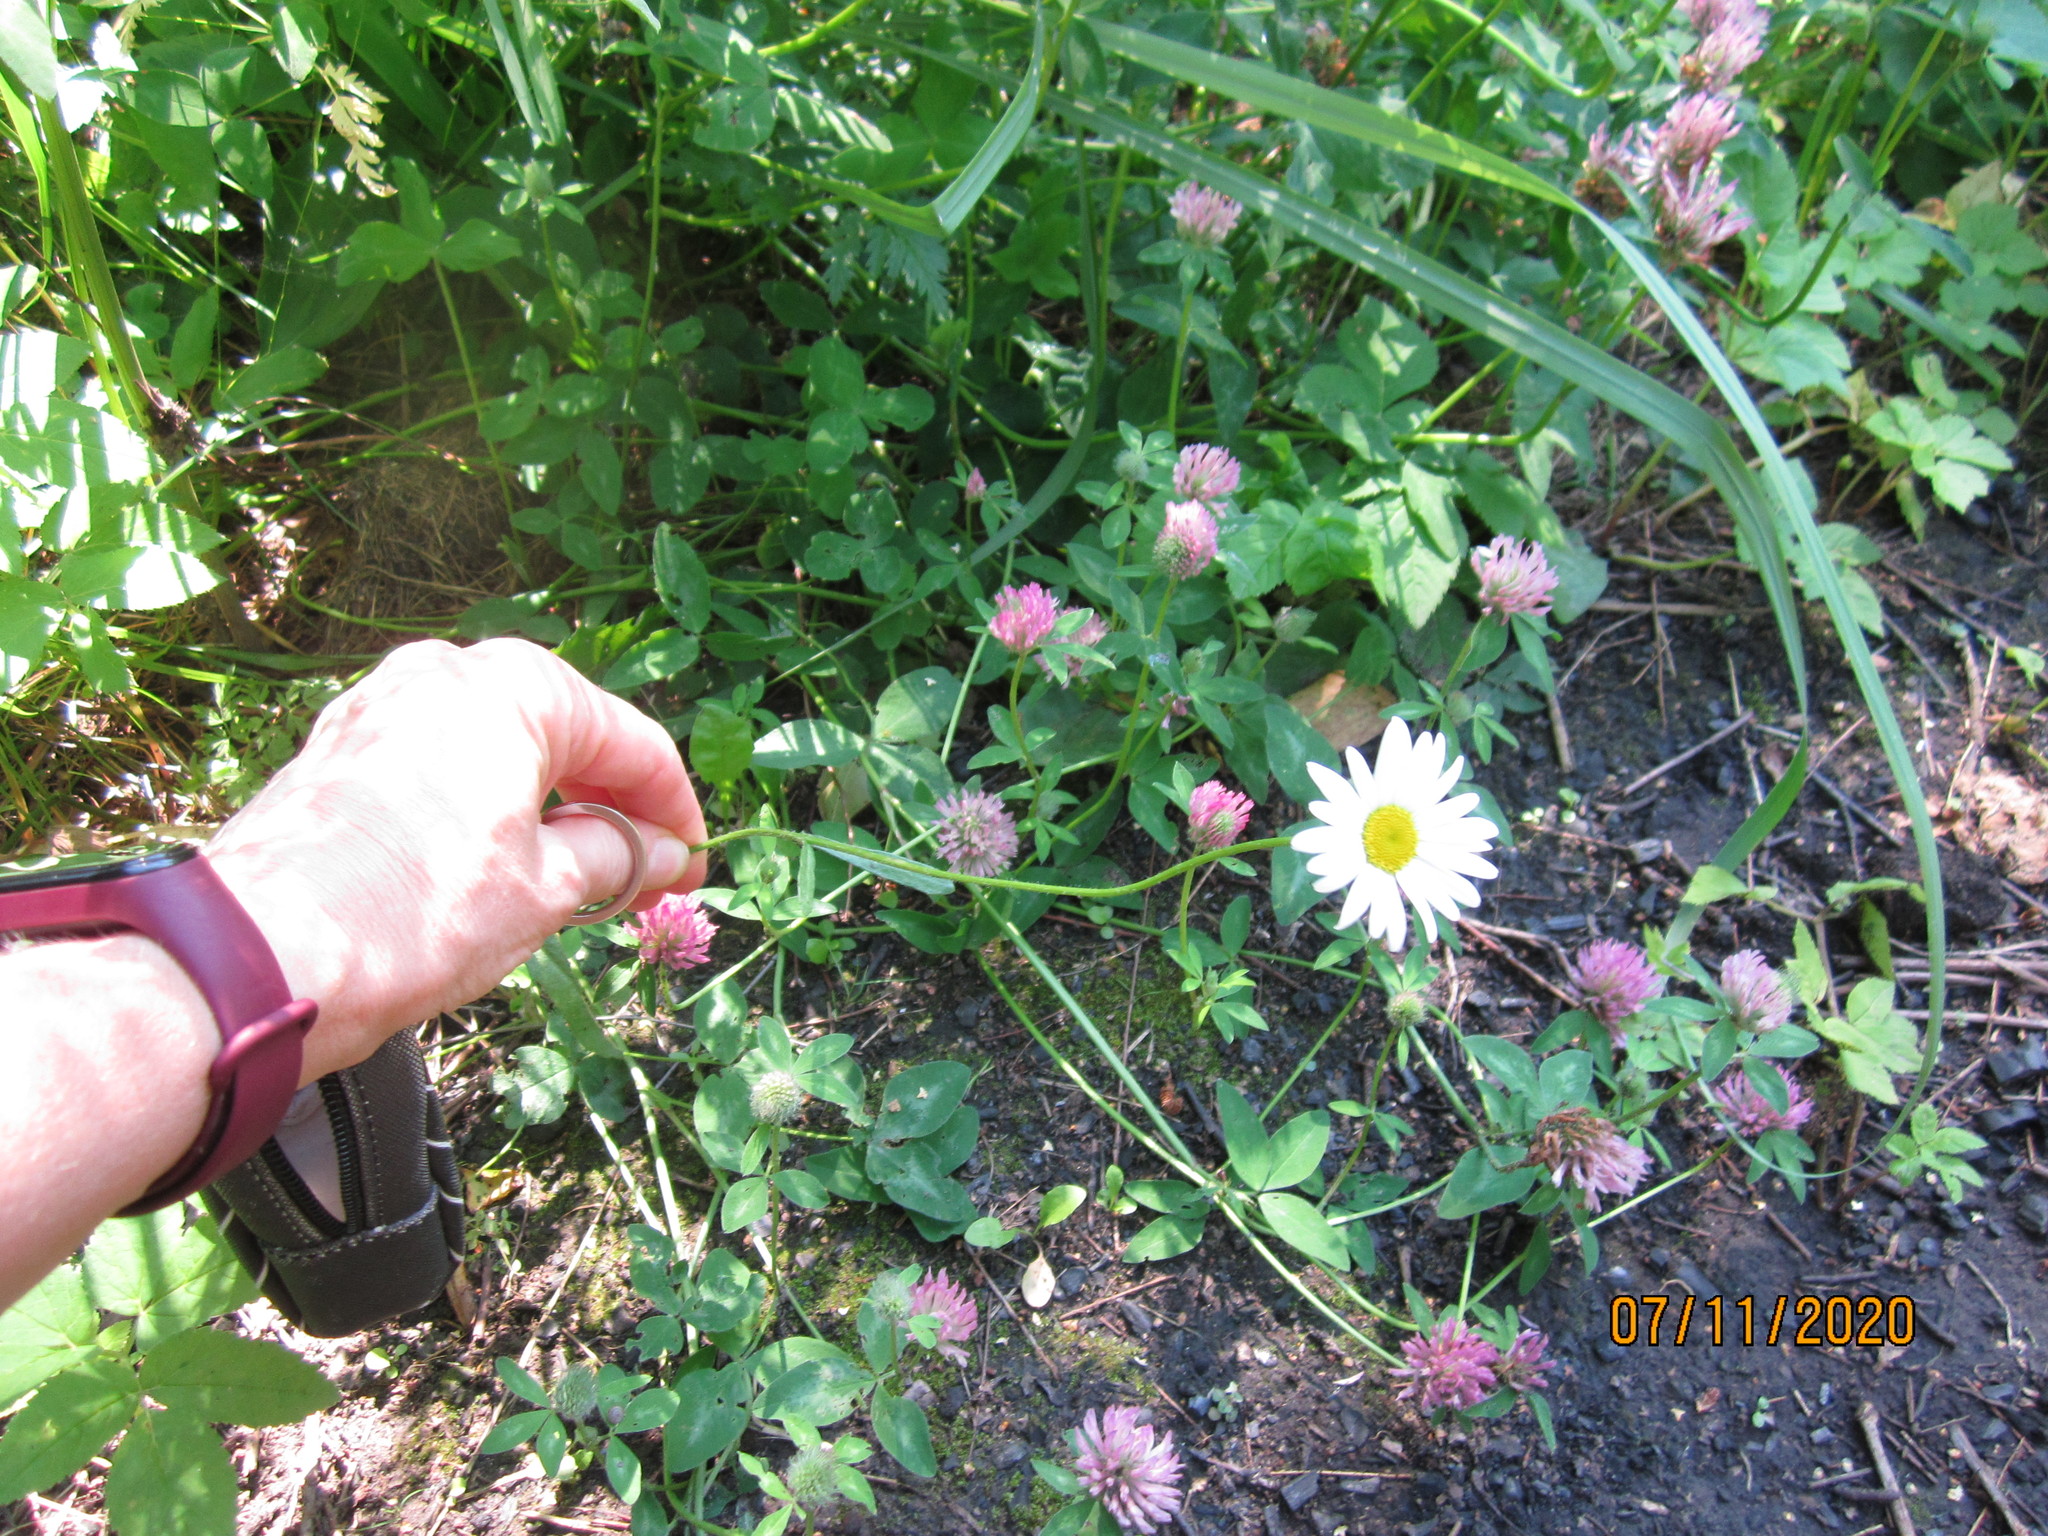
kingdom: Plantae
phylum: Tracheophyta
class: Magnoliopsida
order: Asterales
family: Asteraceae
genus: Leucanthemum
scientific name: Leucanthemum vulgare
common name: Oxeye daisy
